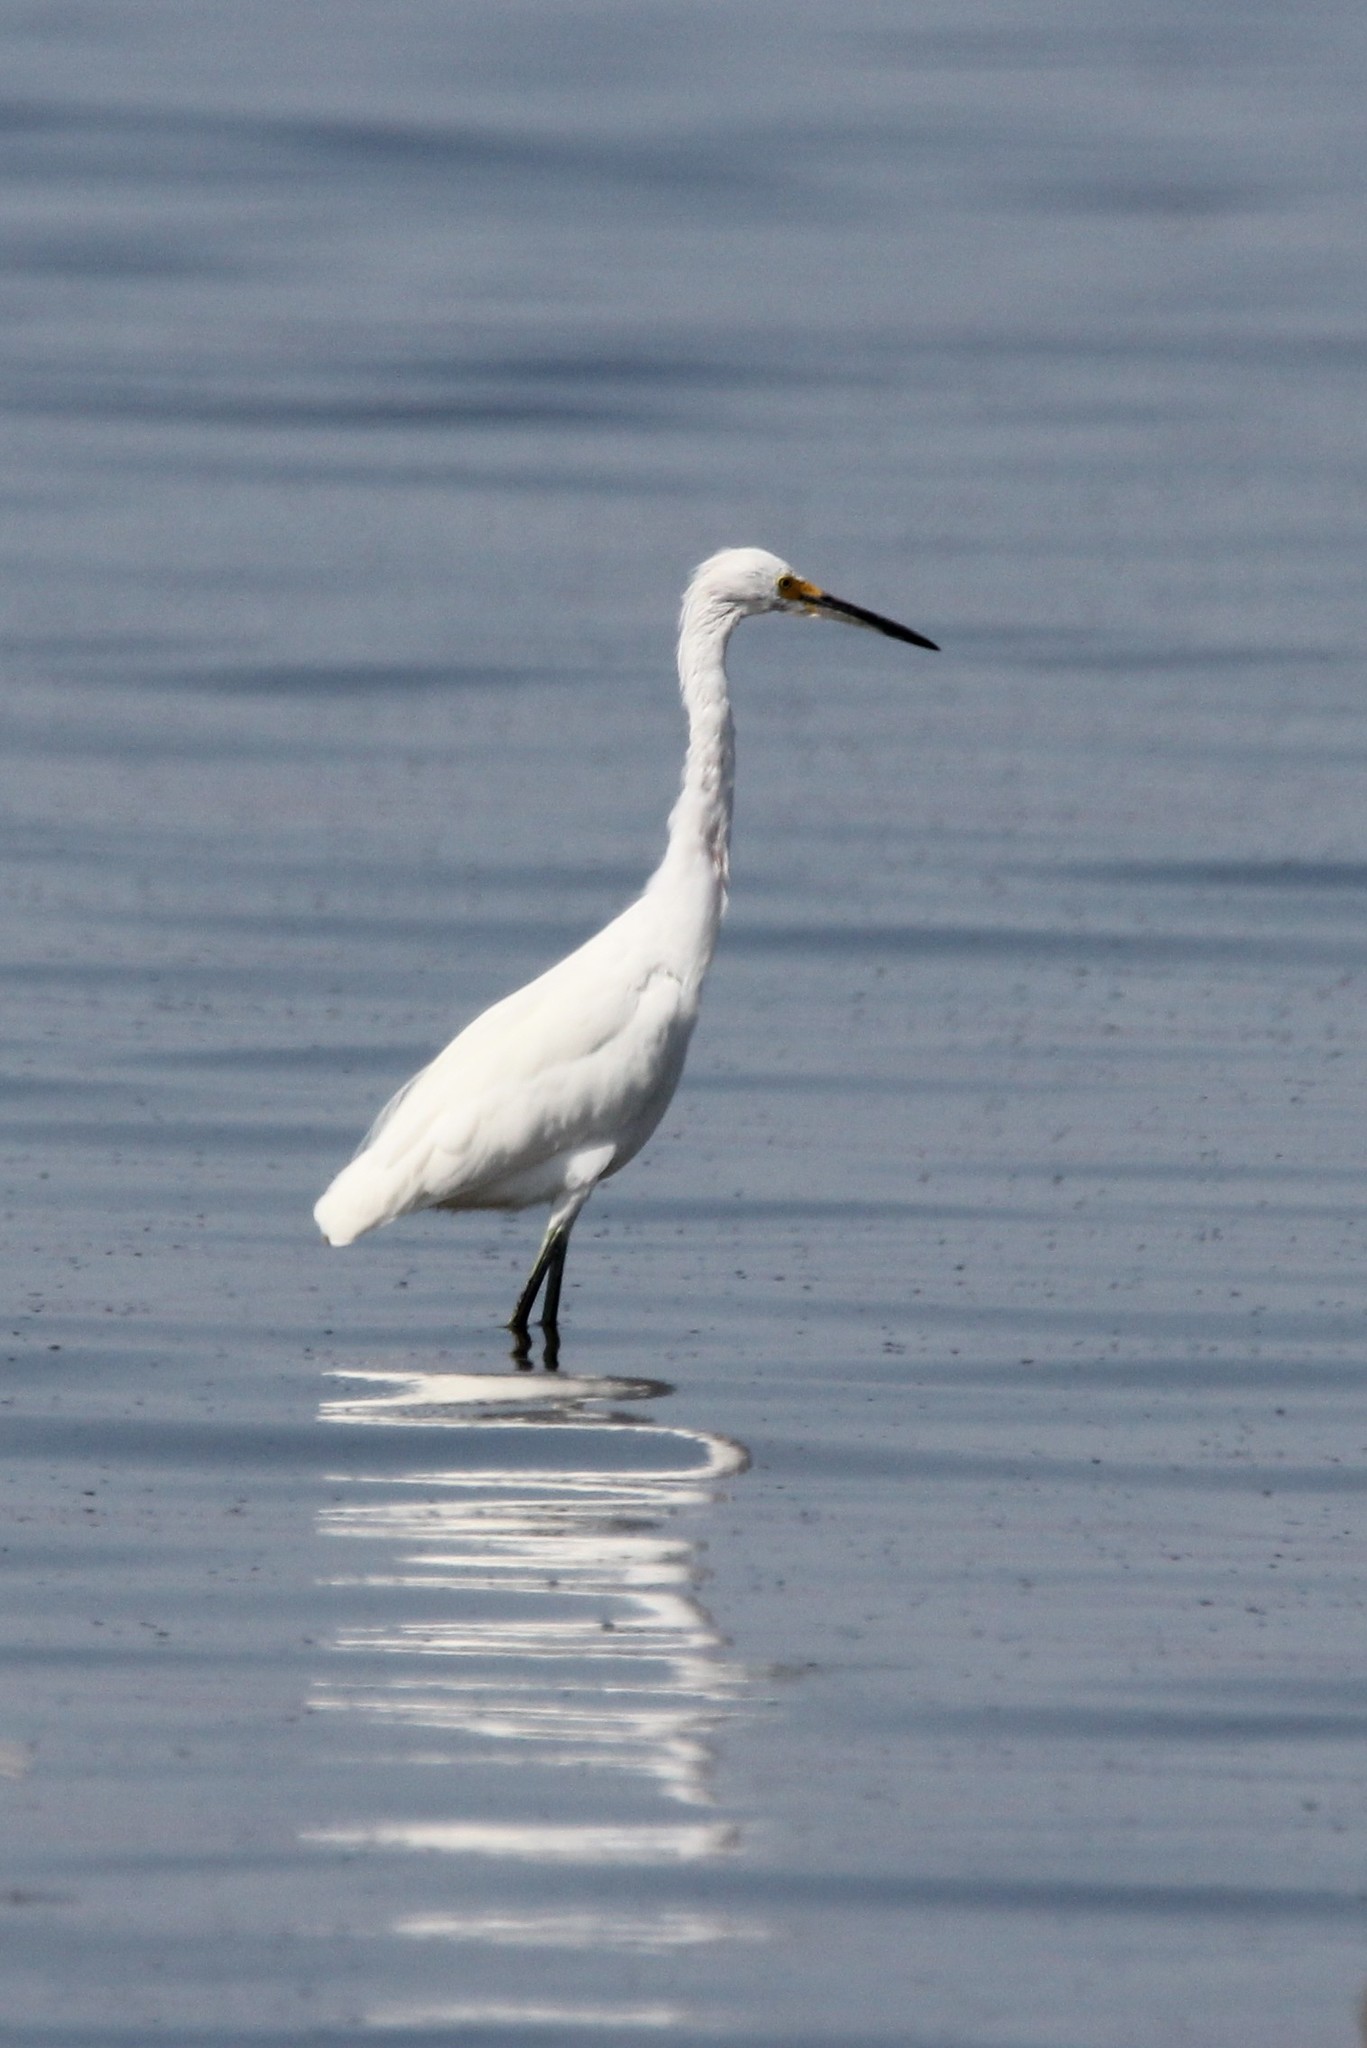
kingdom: Animalia
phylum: Chordata
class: Aves
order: Pelecaniformes
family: Ardeidae
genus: Egretta
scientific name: Egretta thula
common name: Snowy egret
